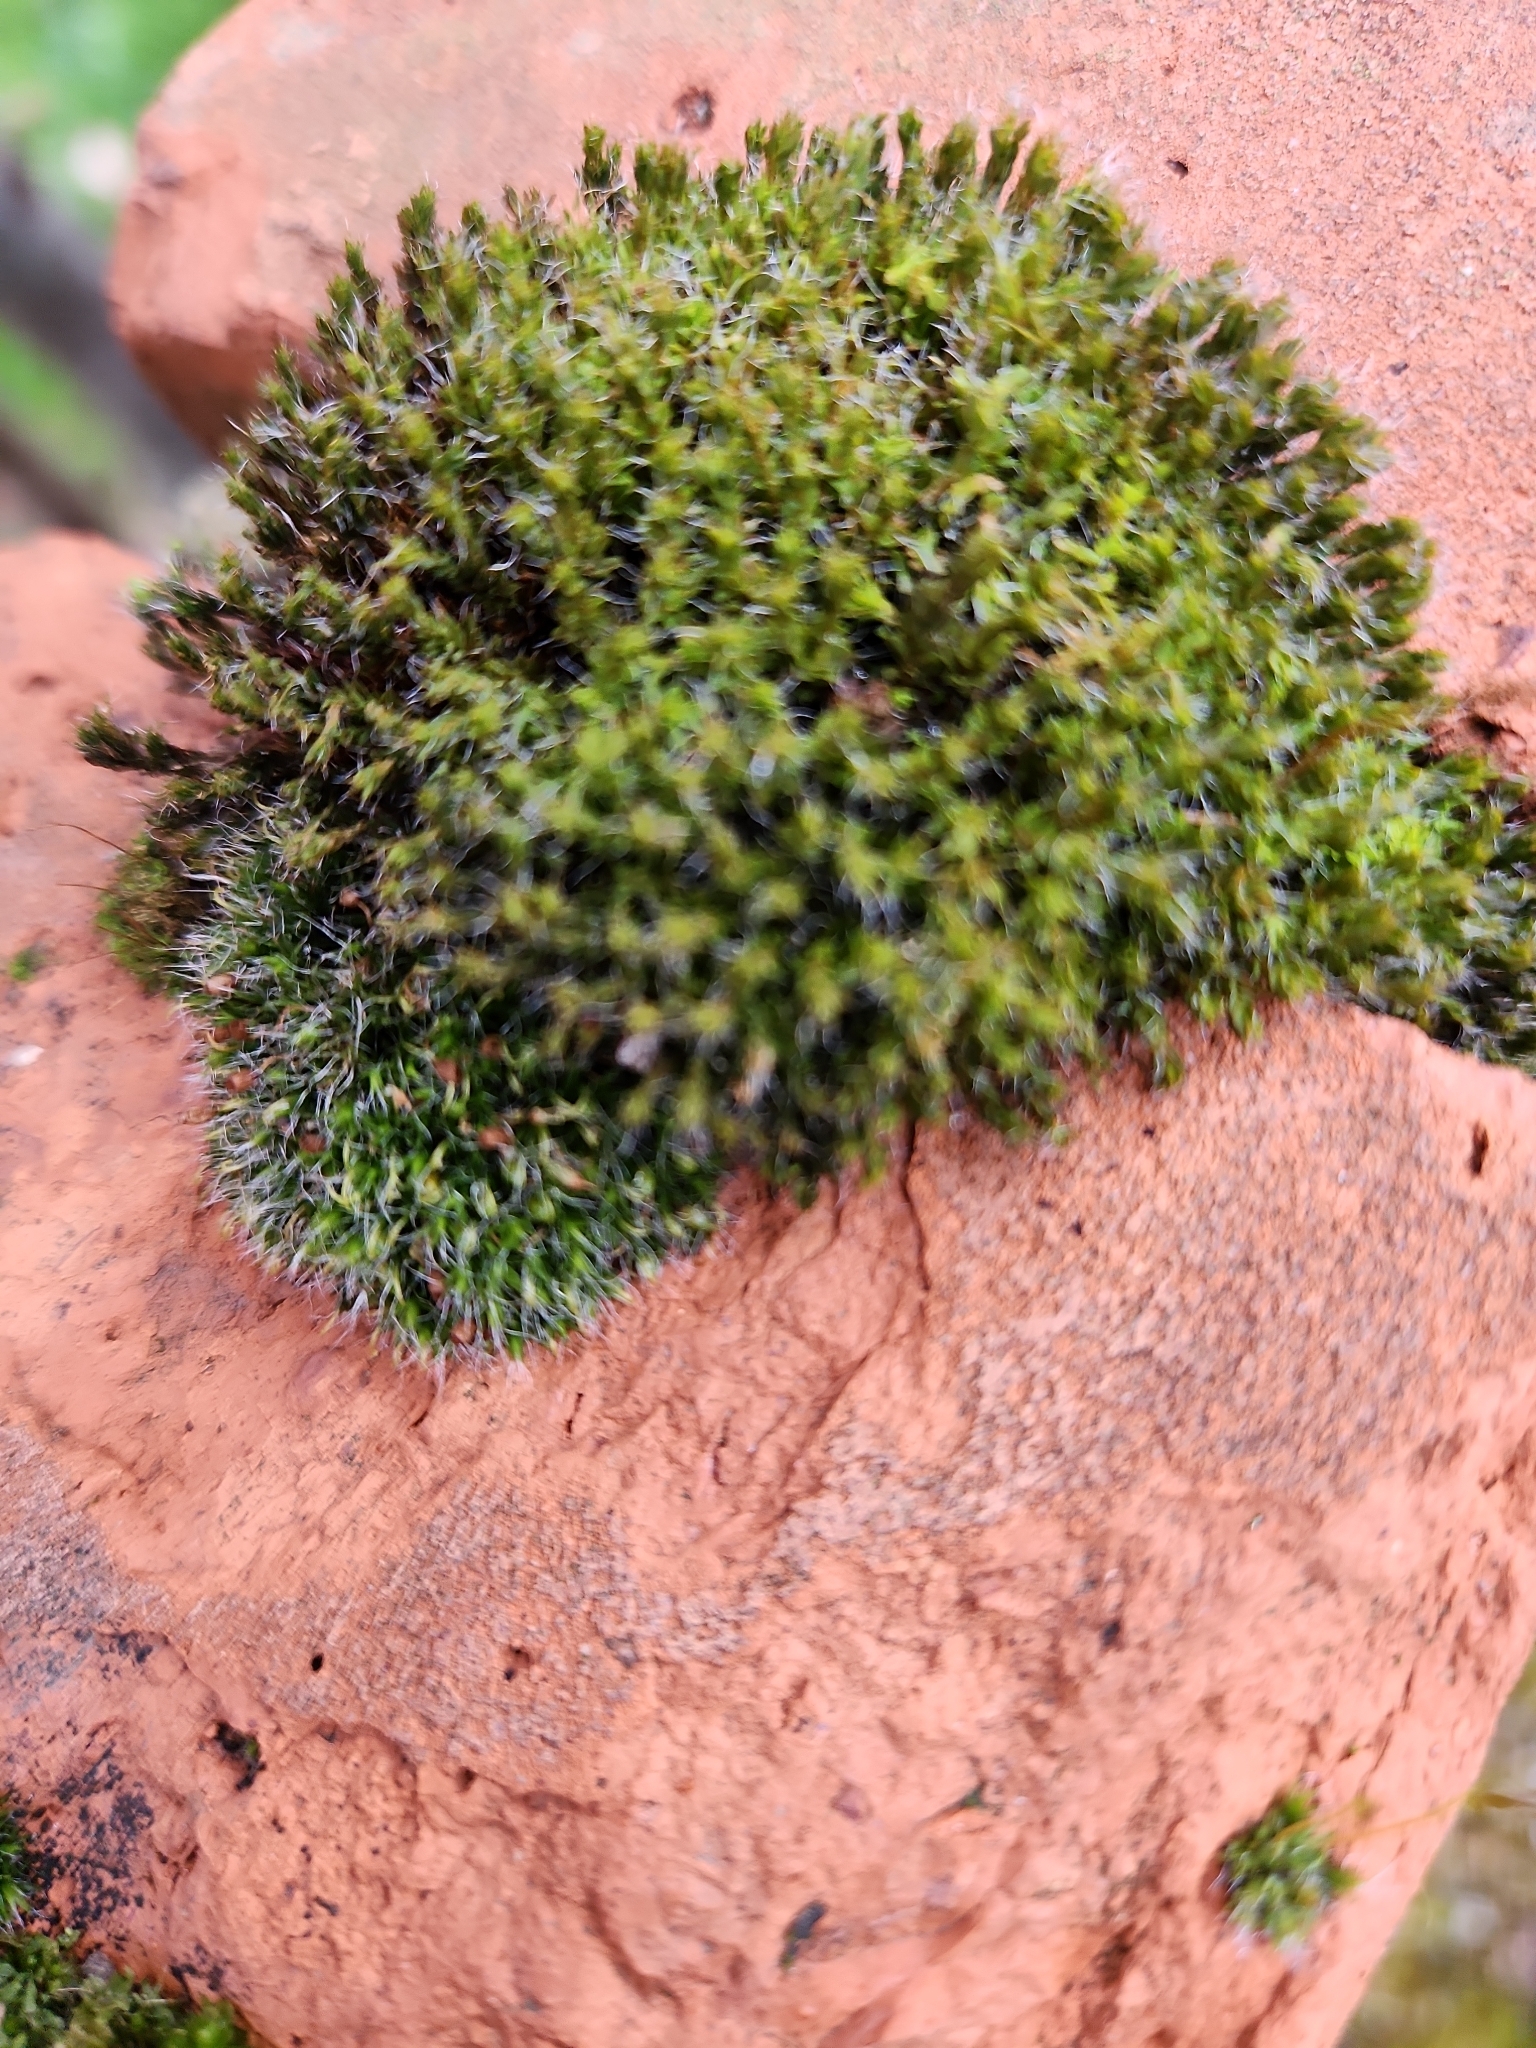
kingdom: Plantae
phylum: Bryophyta
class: Bryopsida
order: Grimmiales
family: Grimmiaceae
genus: Grimmia
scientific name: Grimmia pulvinata
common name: Grey-cushioned grimmia
